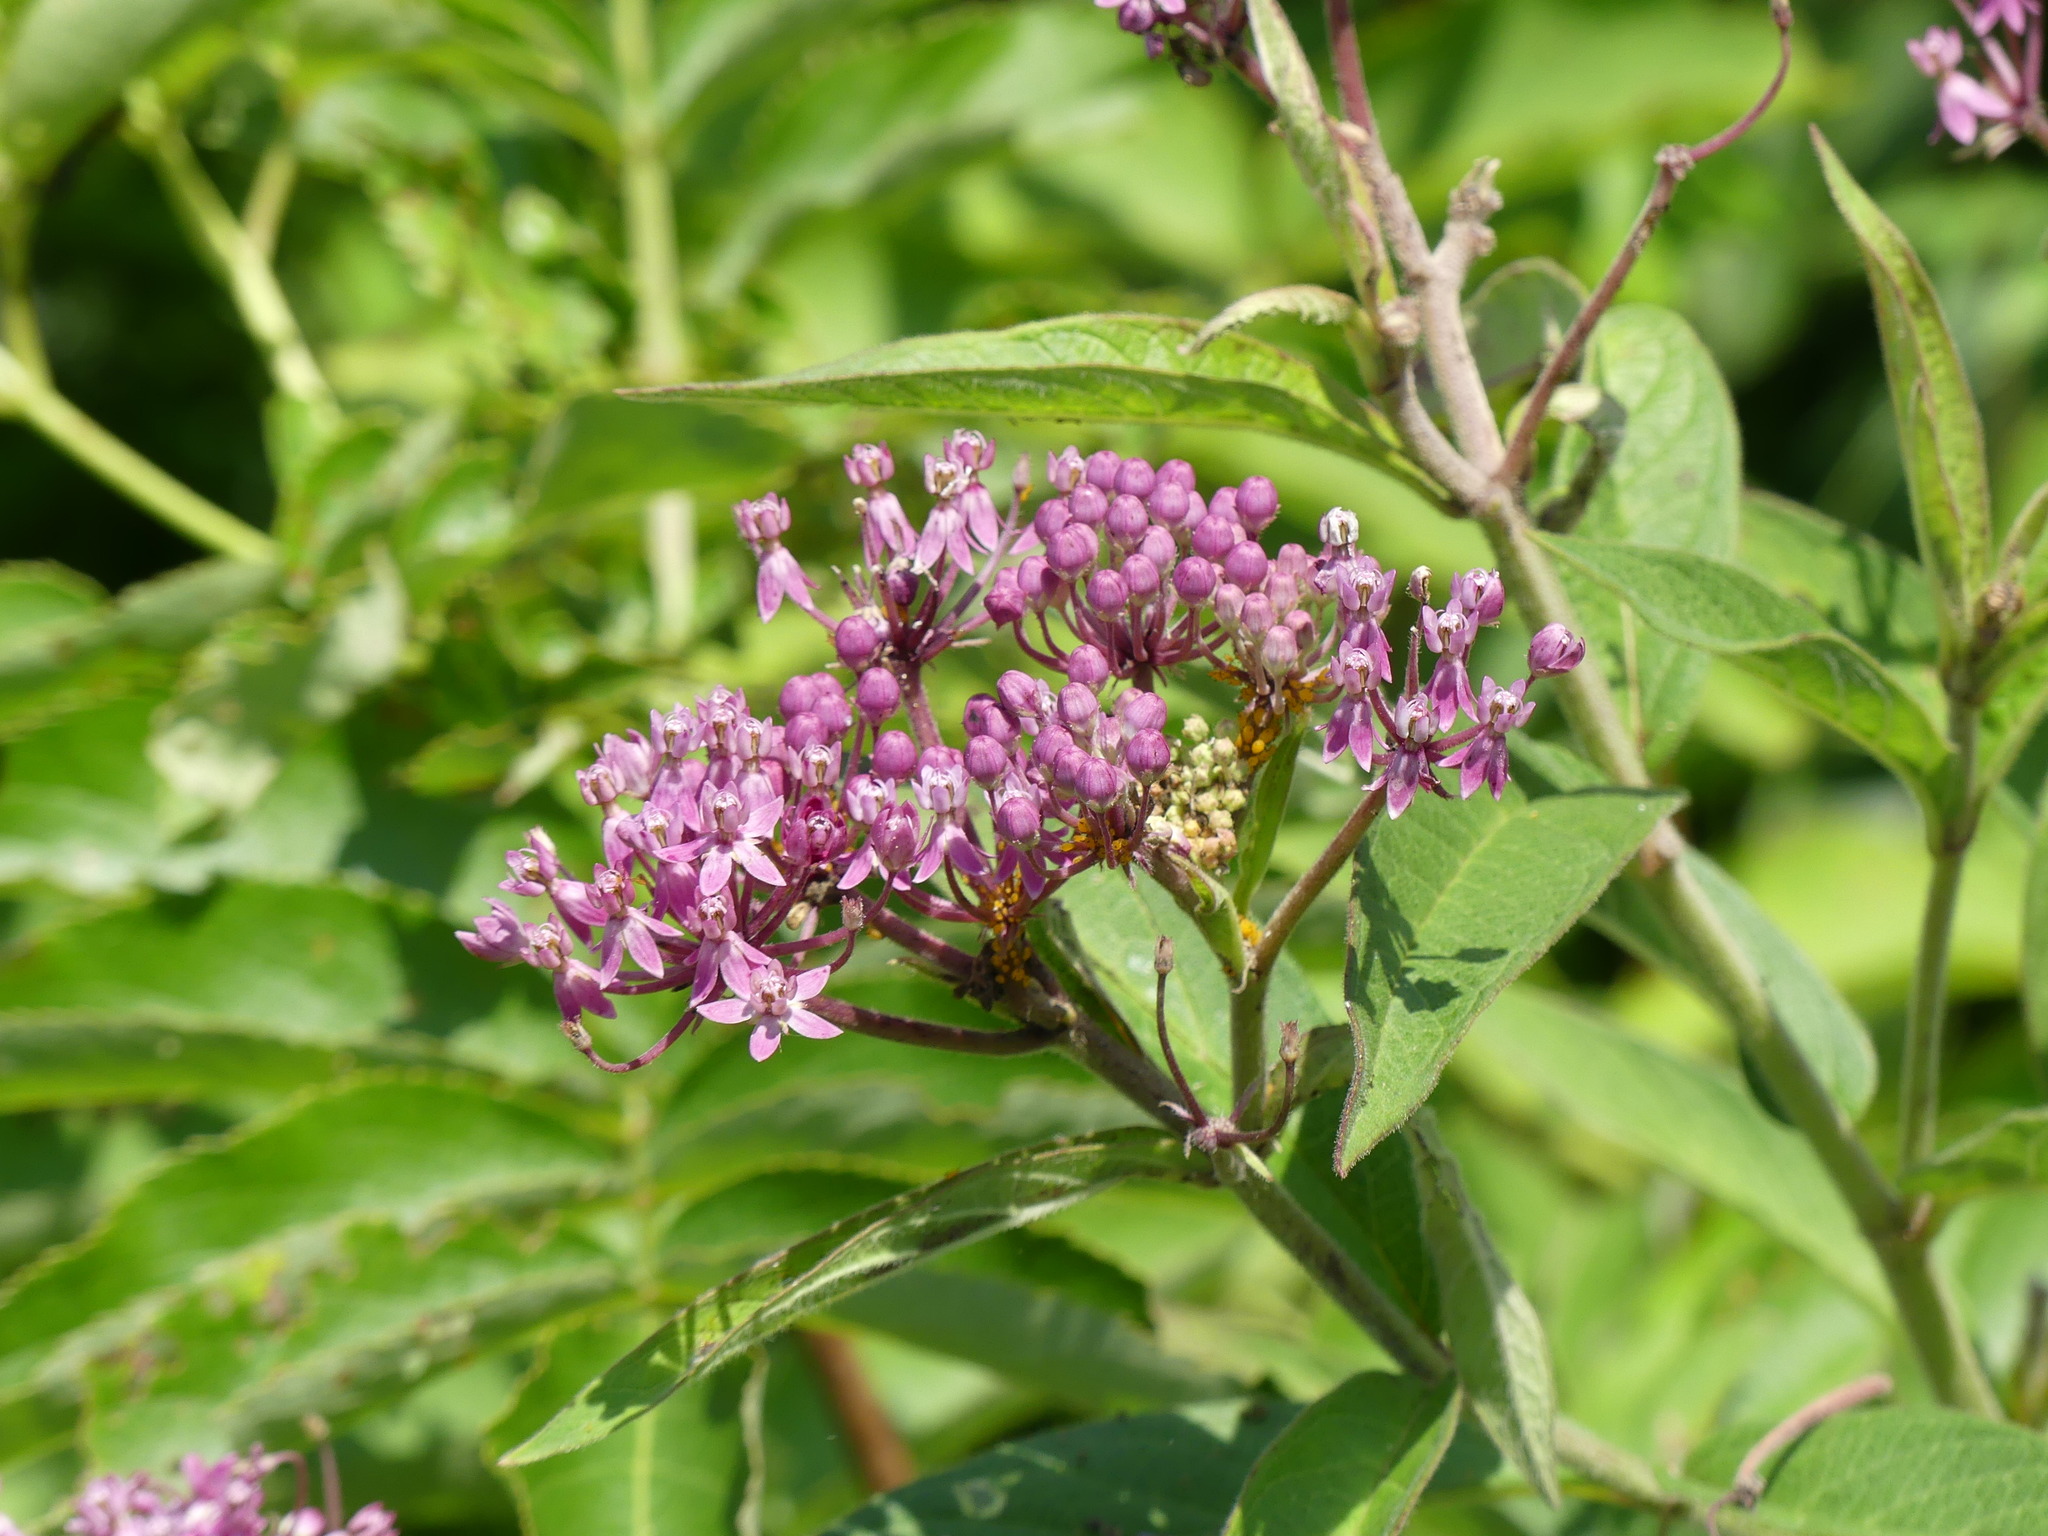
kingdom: Plantae
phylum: Tracheophyta
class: Magnoliopsida
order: Gentianales
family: Apocynaceae
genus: Asclepias
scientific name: Asclepias incarnata
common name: Swamp milkweed
